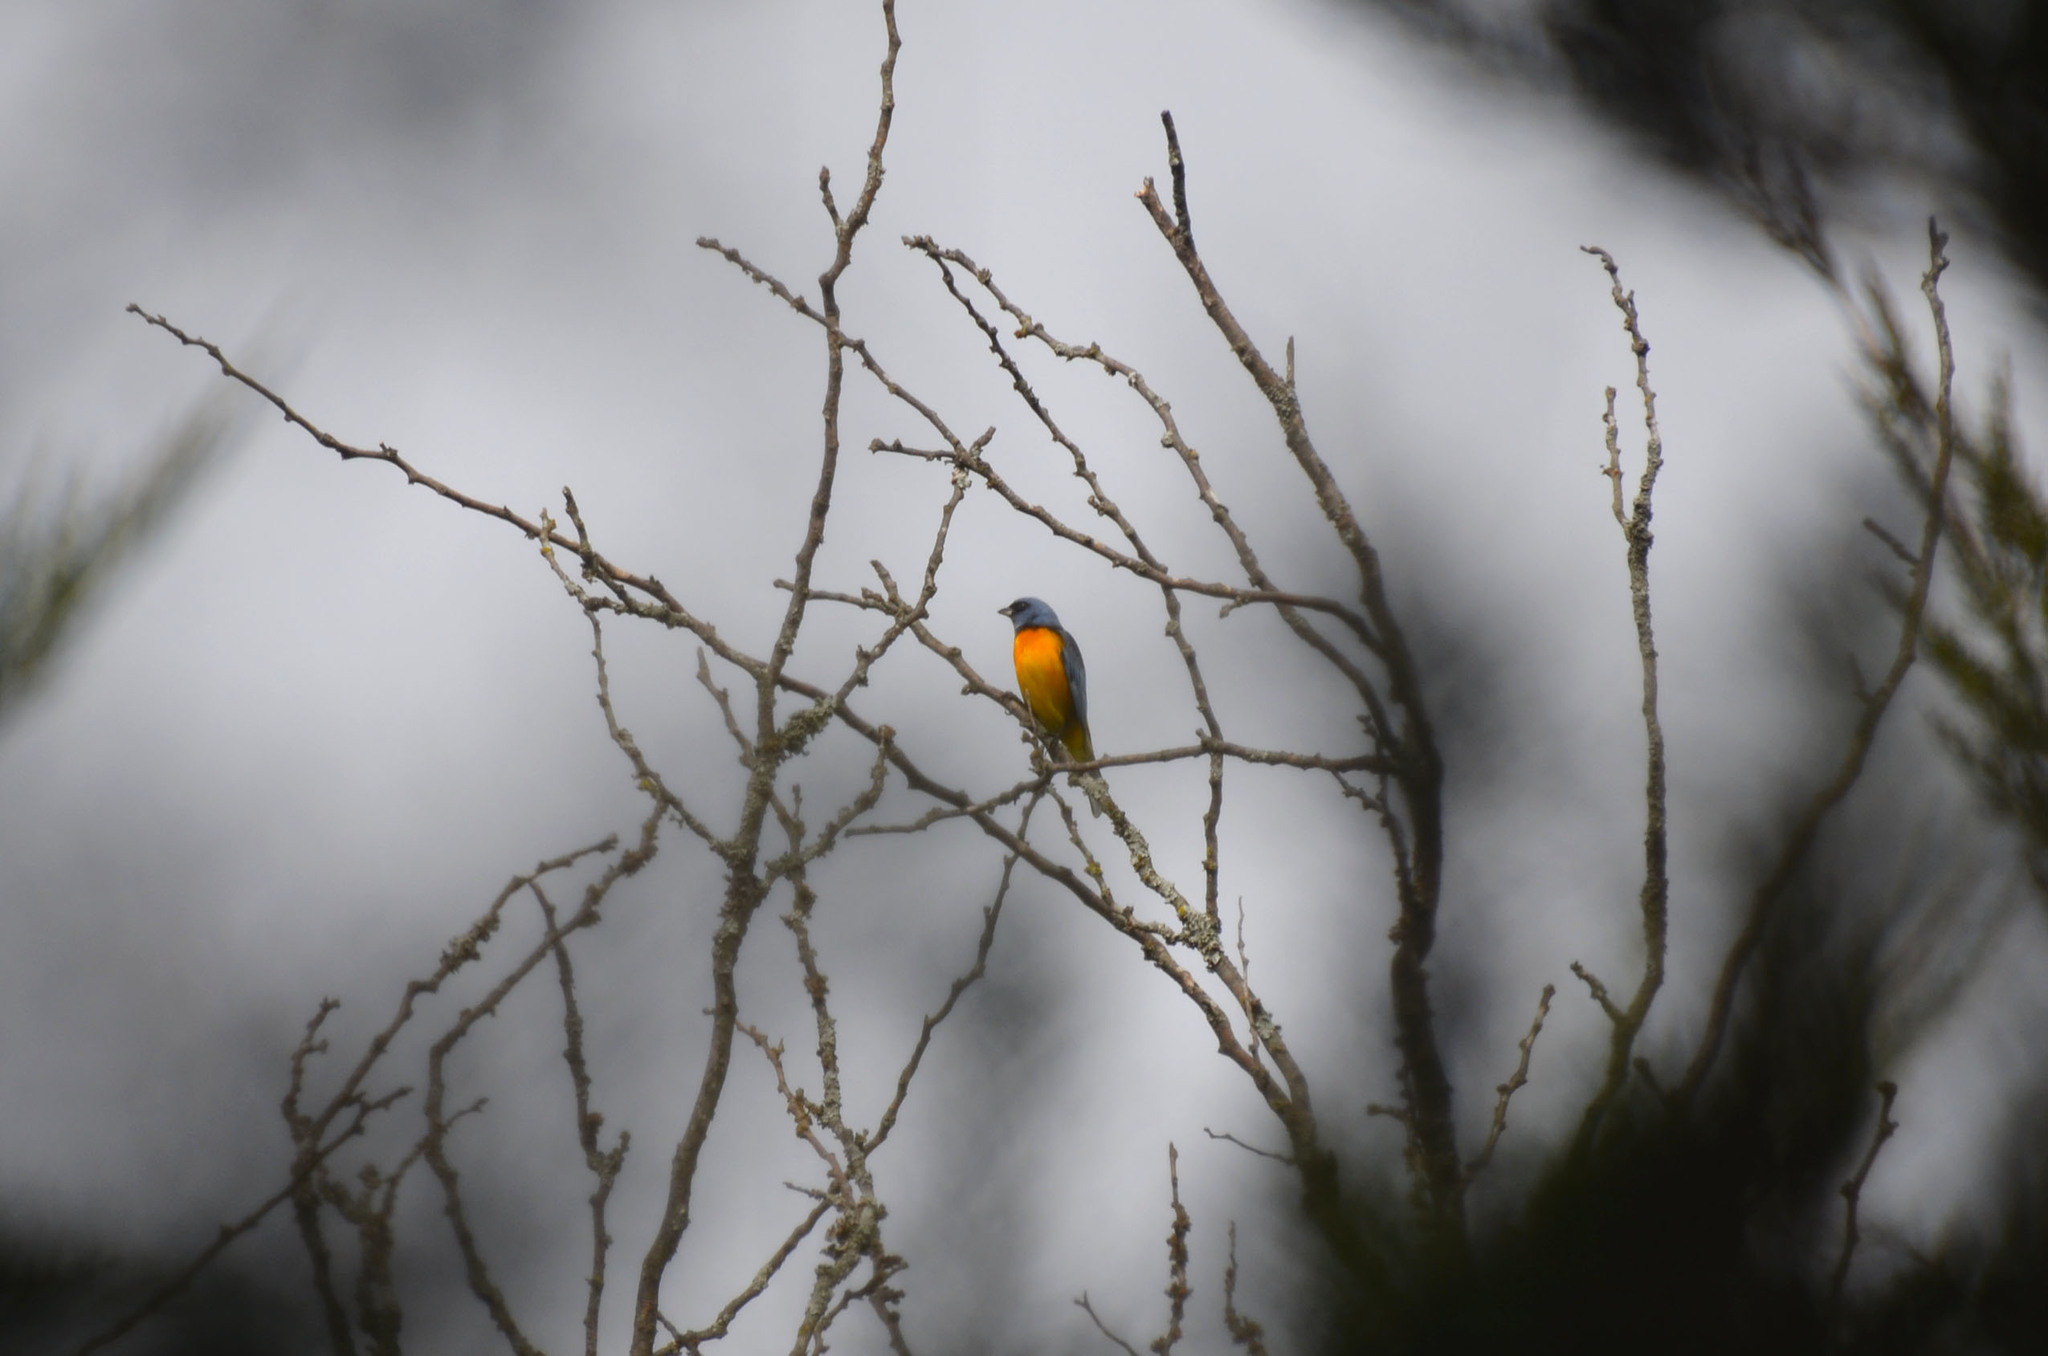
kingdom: Animalia
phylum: Chordata
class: Aves
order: Passeriformes
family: Thraupidae
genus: Rauenia
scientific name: Rauenia bonariensis
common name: Blue-and-yellow tanager
